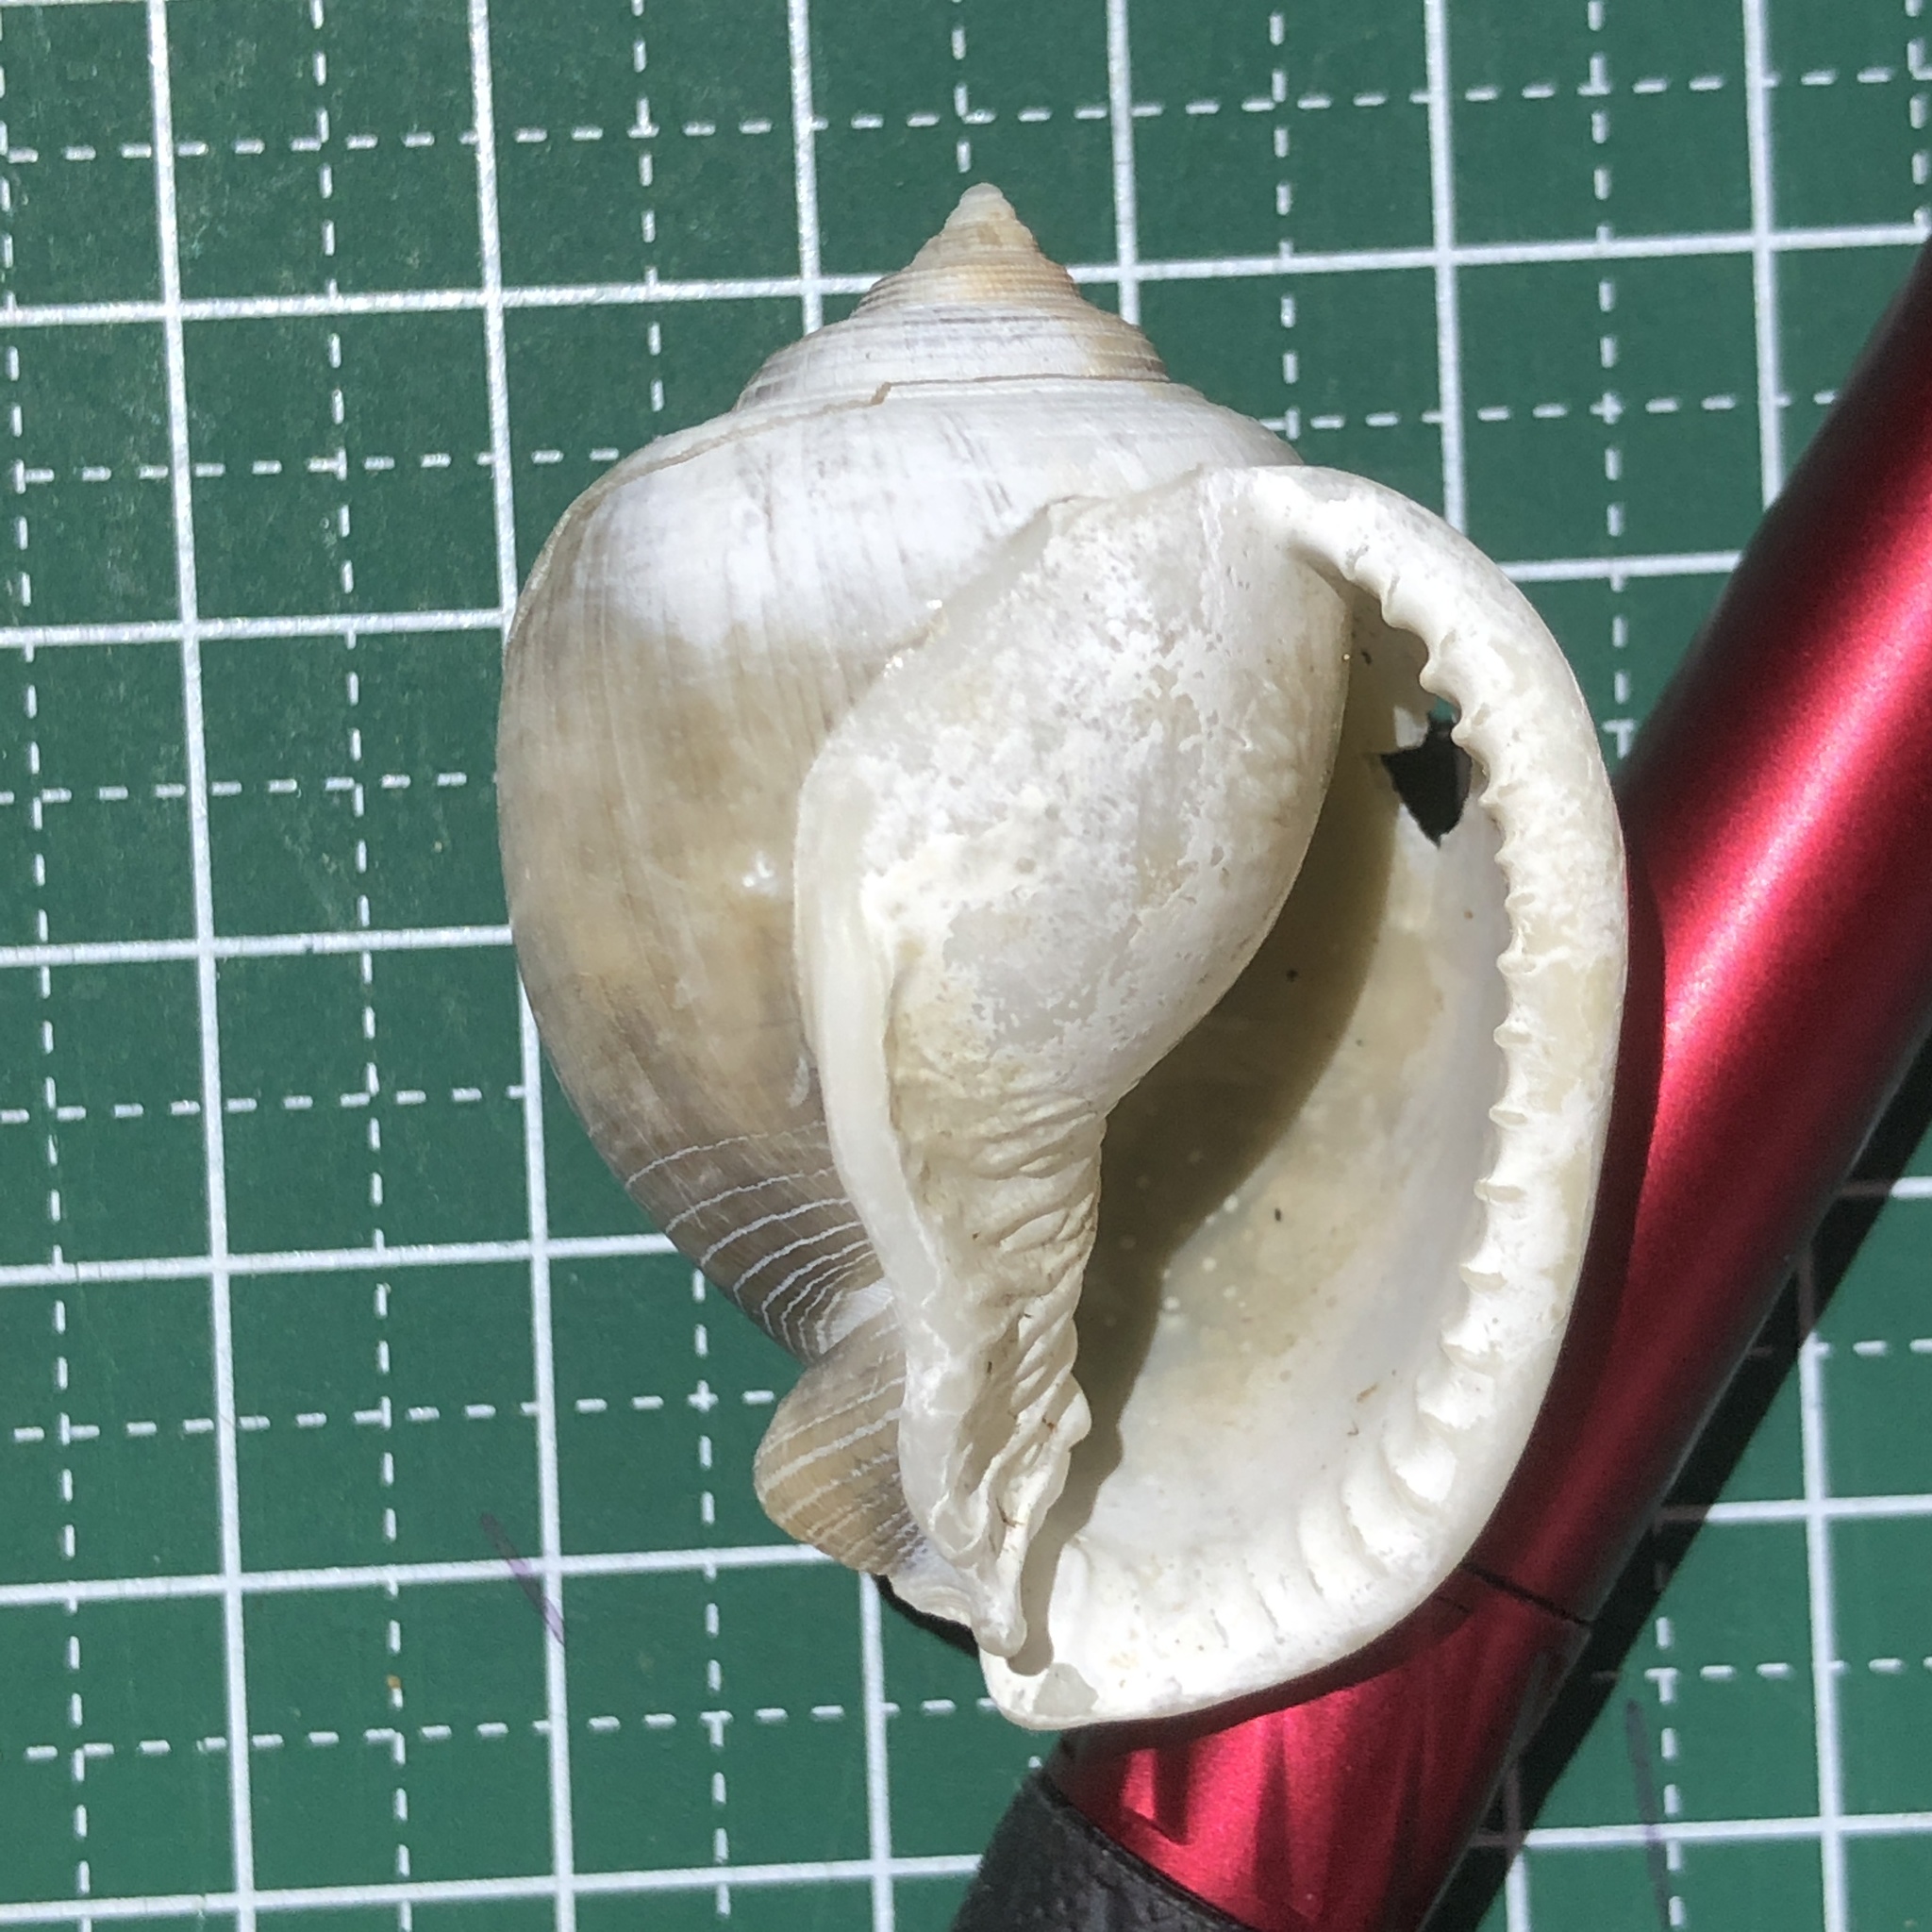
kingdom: Animalia
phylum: Mollusca
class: Gastropoda
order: Littorinimorpha
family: Cassidae
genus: Semicassis
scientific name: Semicassis bisulcata
